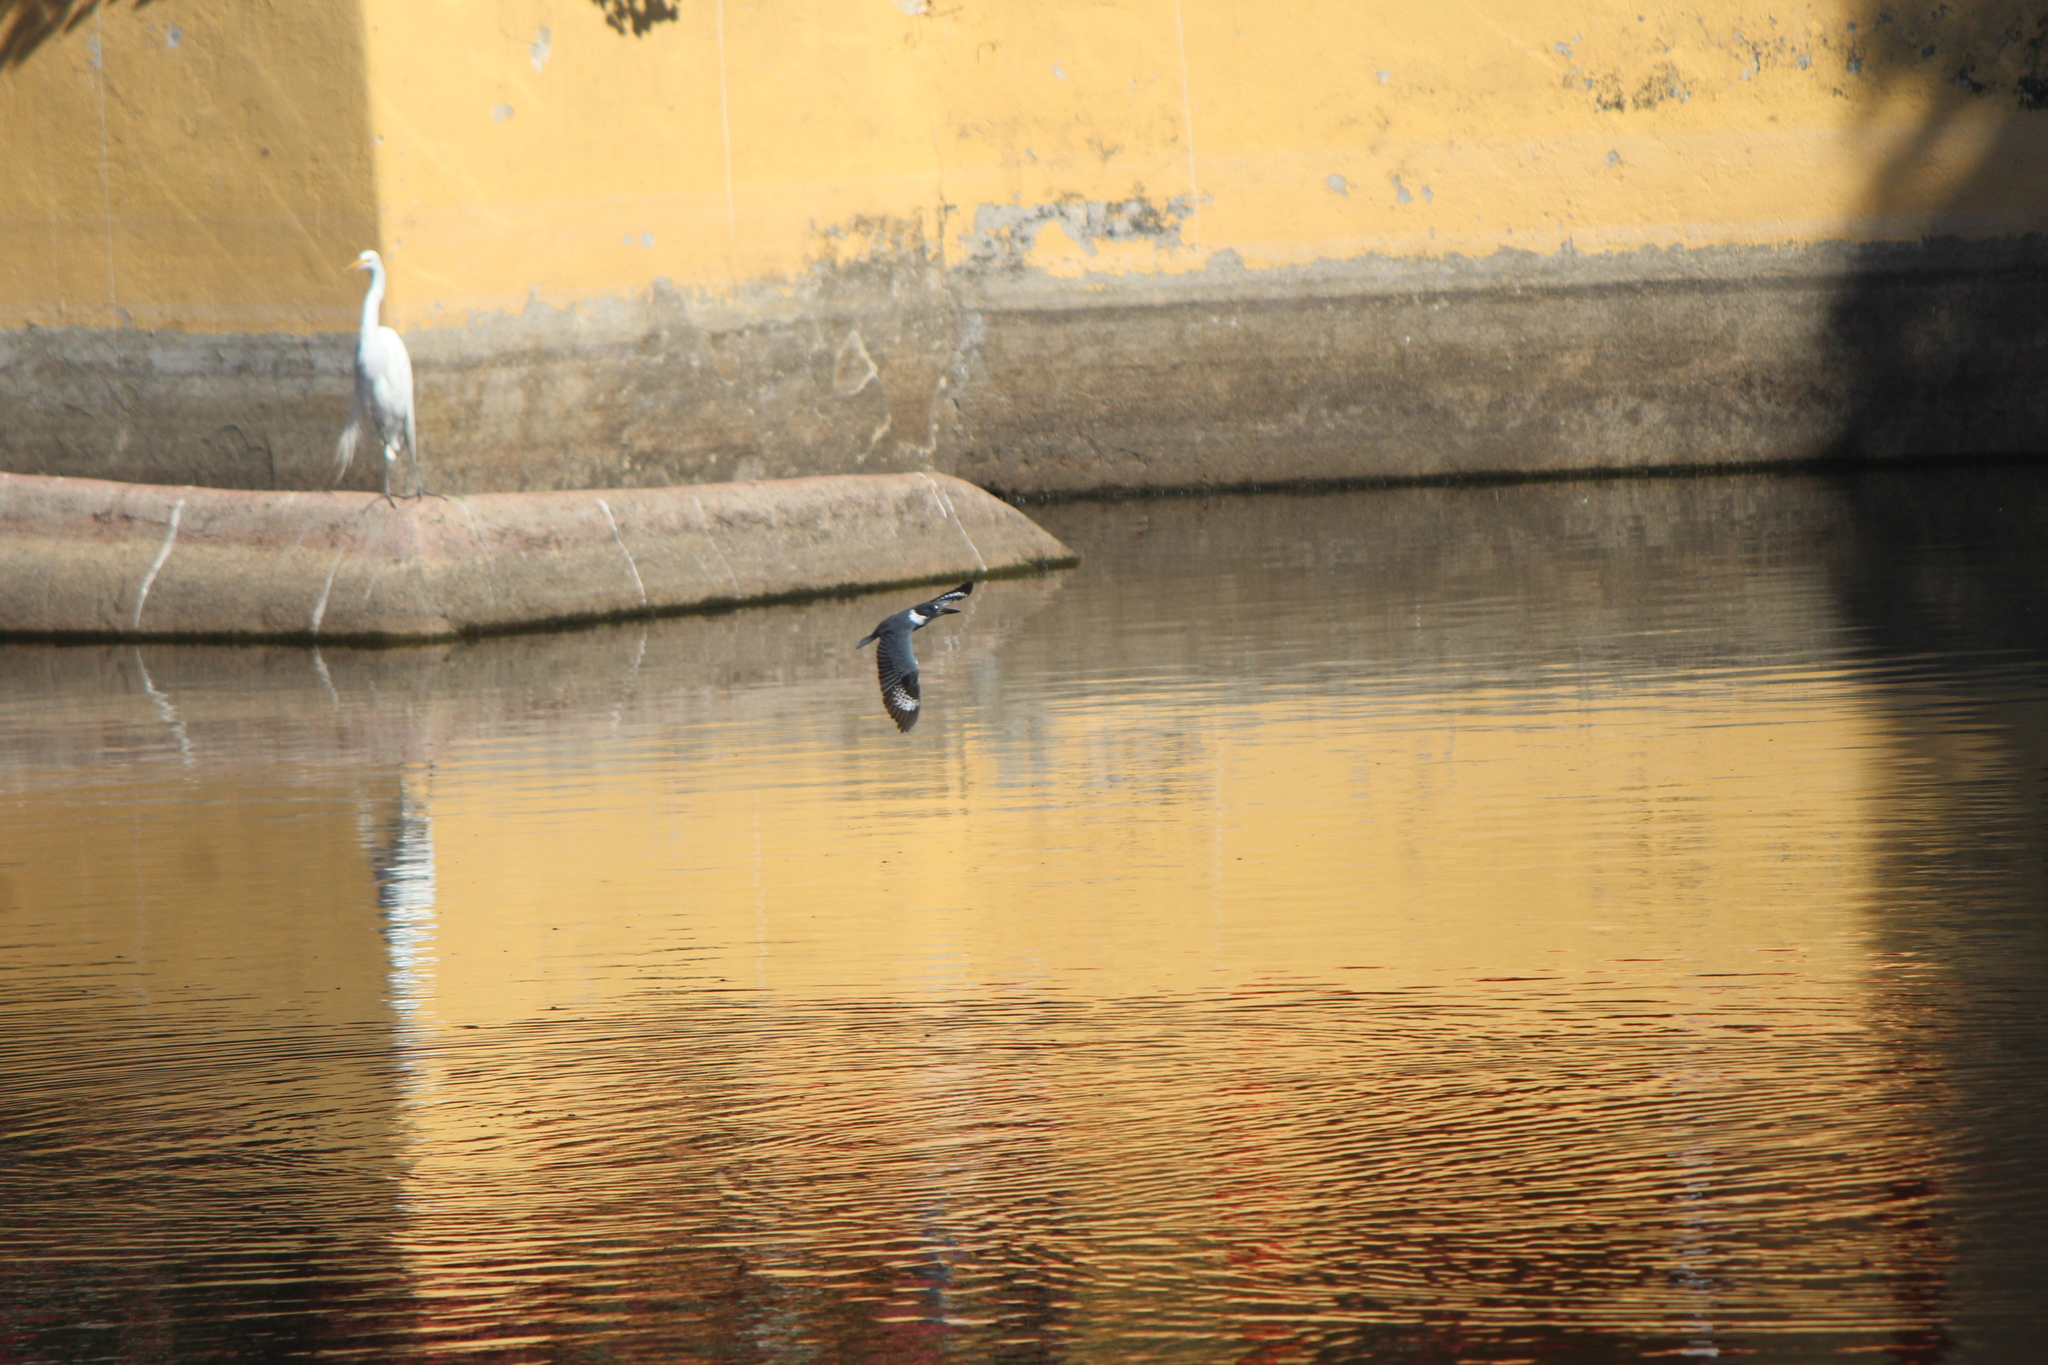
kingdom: Animalia
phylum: Chordata
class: Aves
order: Coraciiformes
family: Alcedinidae
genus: Megaceryle
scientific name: Megaceryle alcyon
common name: Belted kingfisher
